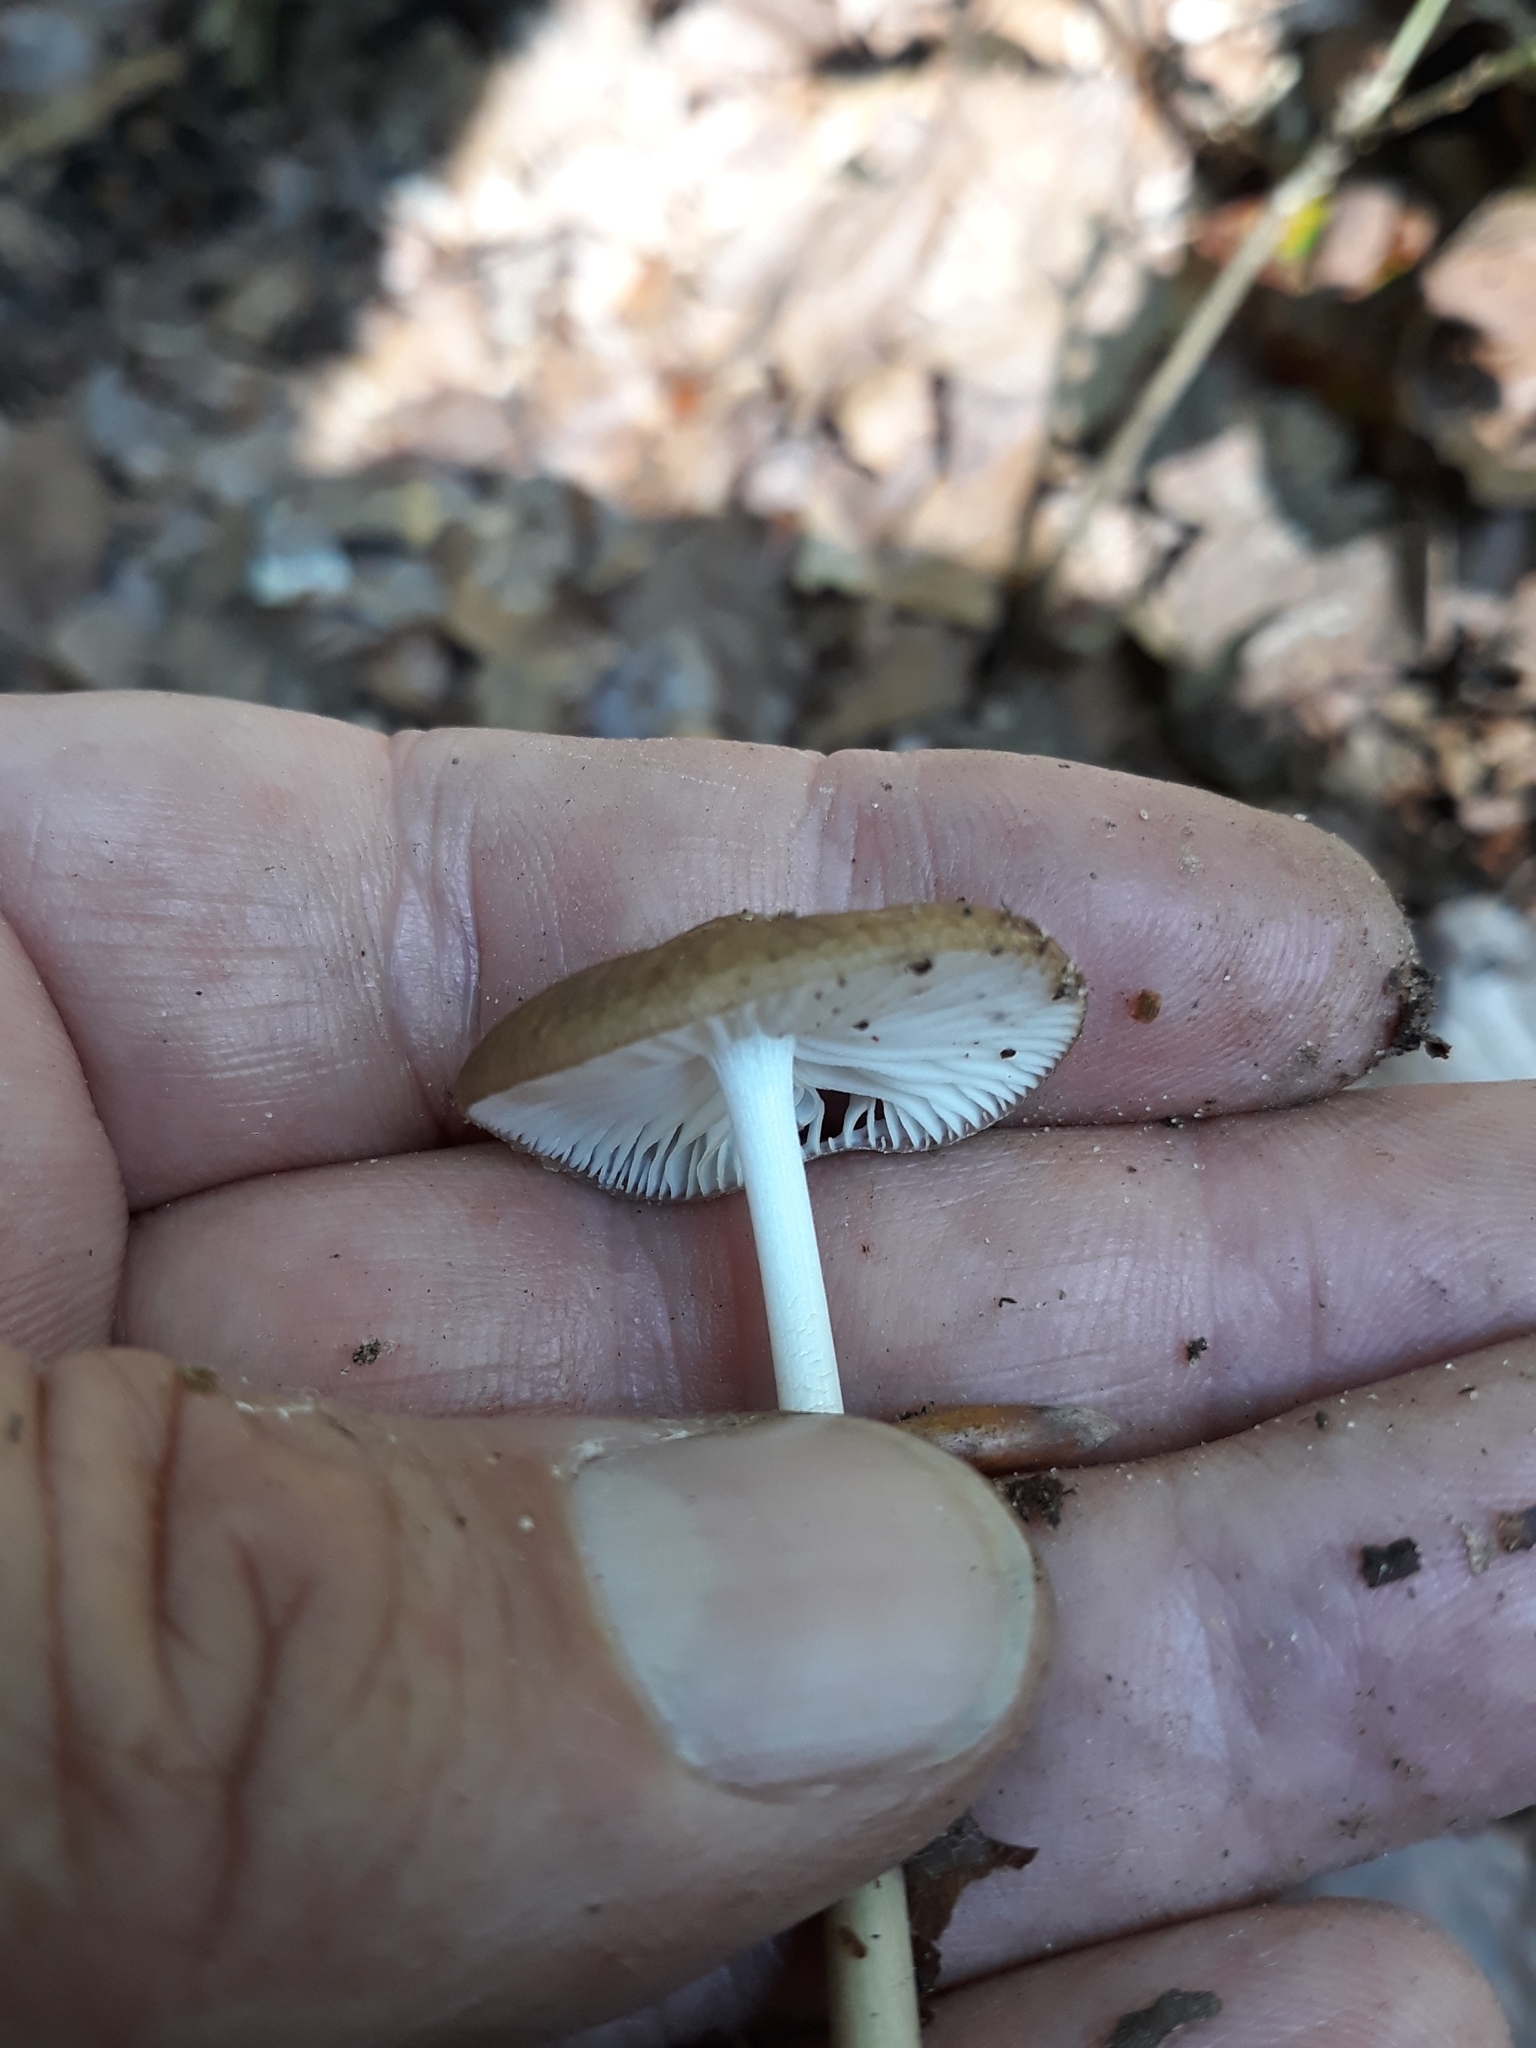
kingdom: Fungi
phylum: Basidiomycota
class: Agaricomycetes
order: Agaricales
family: Physalacriaceae
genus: Hymenopellis
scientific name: Hymenopellis radicata
